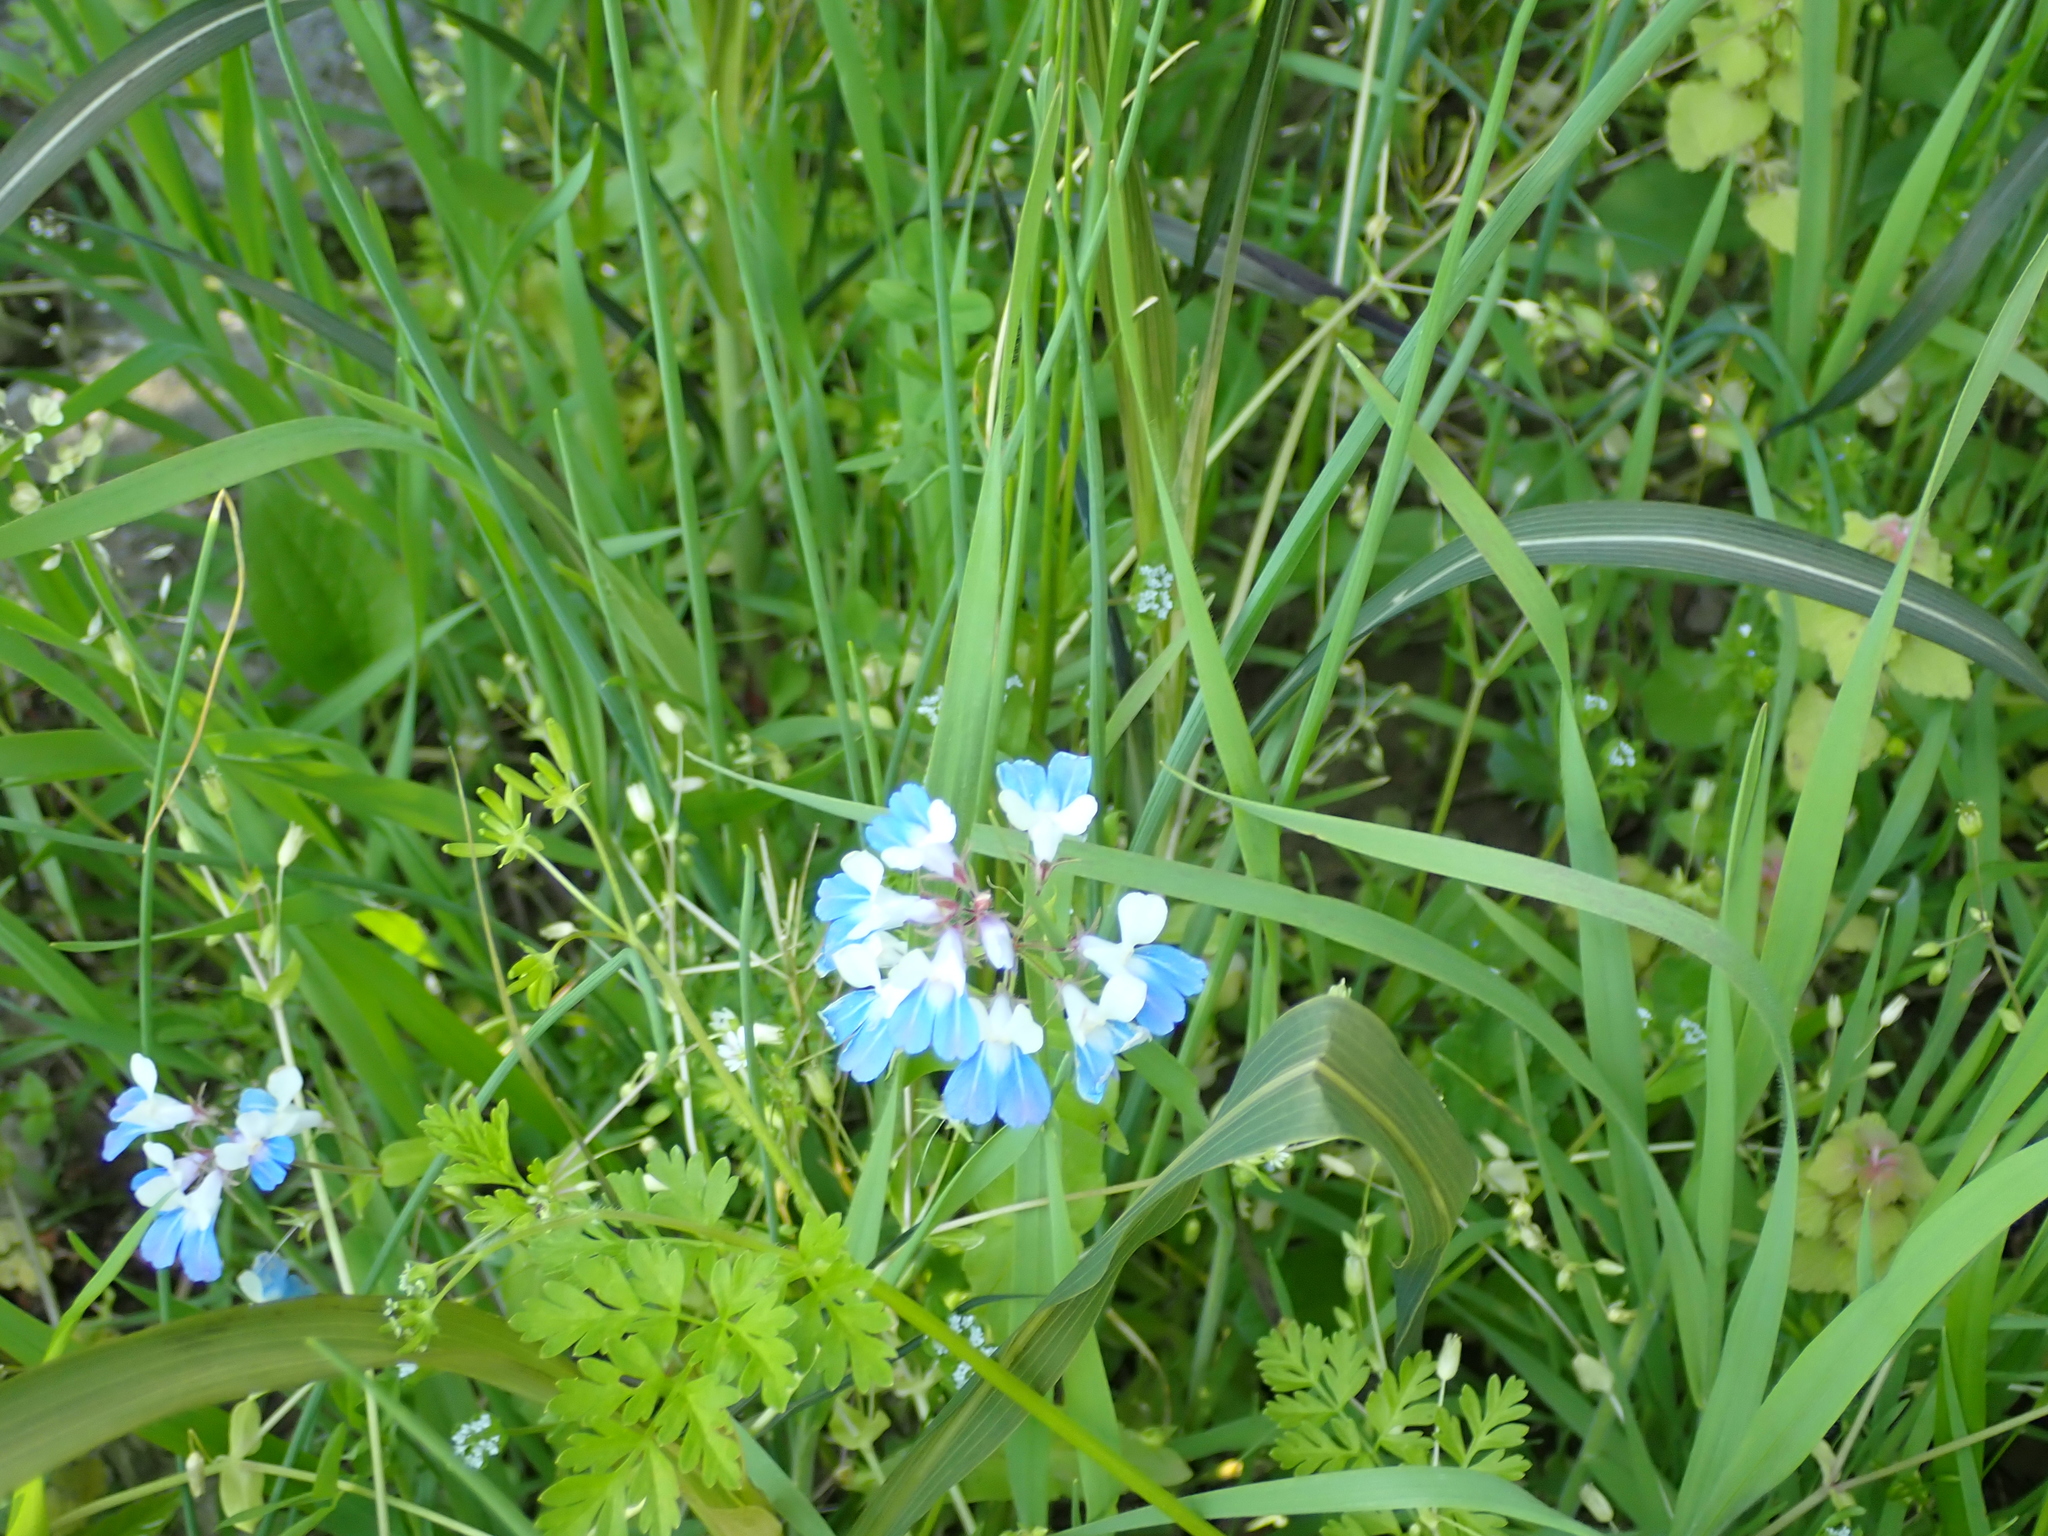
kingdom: Plantae
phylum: Tracheophyta
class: Magnoliopsida
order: Lamiales
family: Plantaginaceae
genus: Collinsia
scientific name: Collinsia verna
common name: Broad-leaved collinsia
